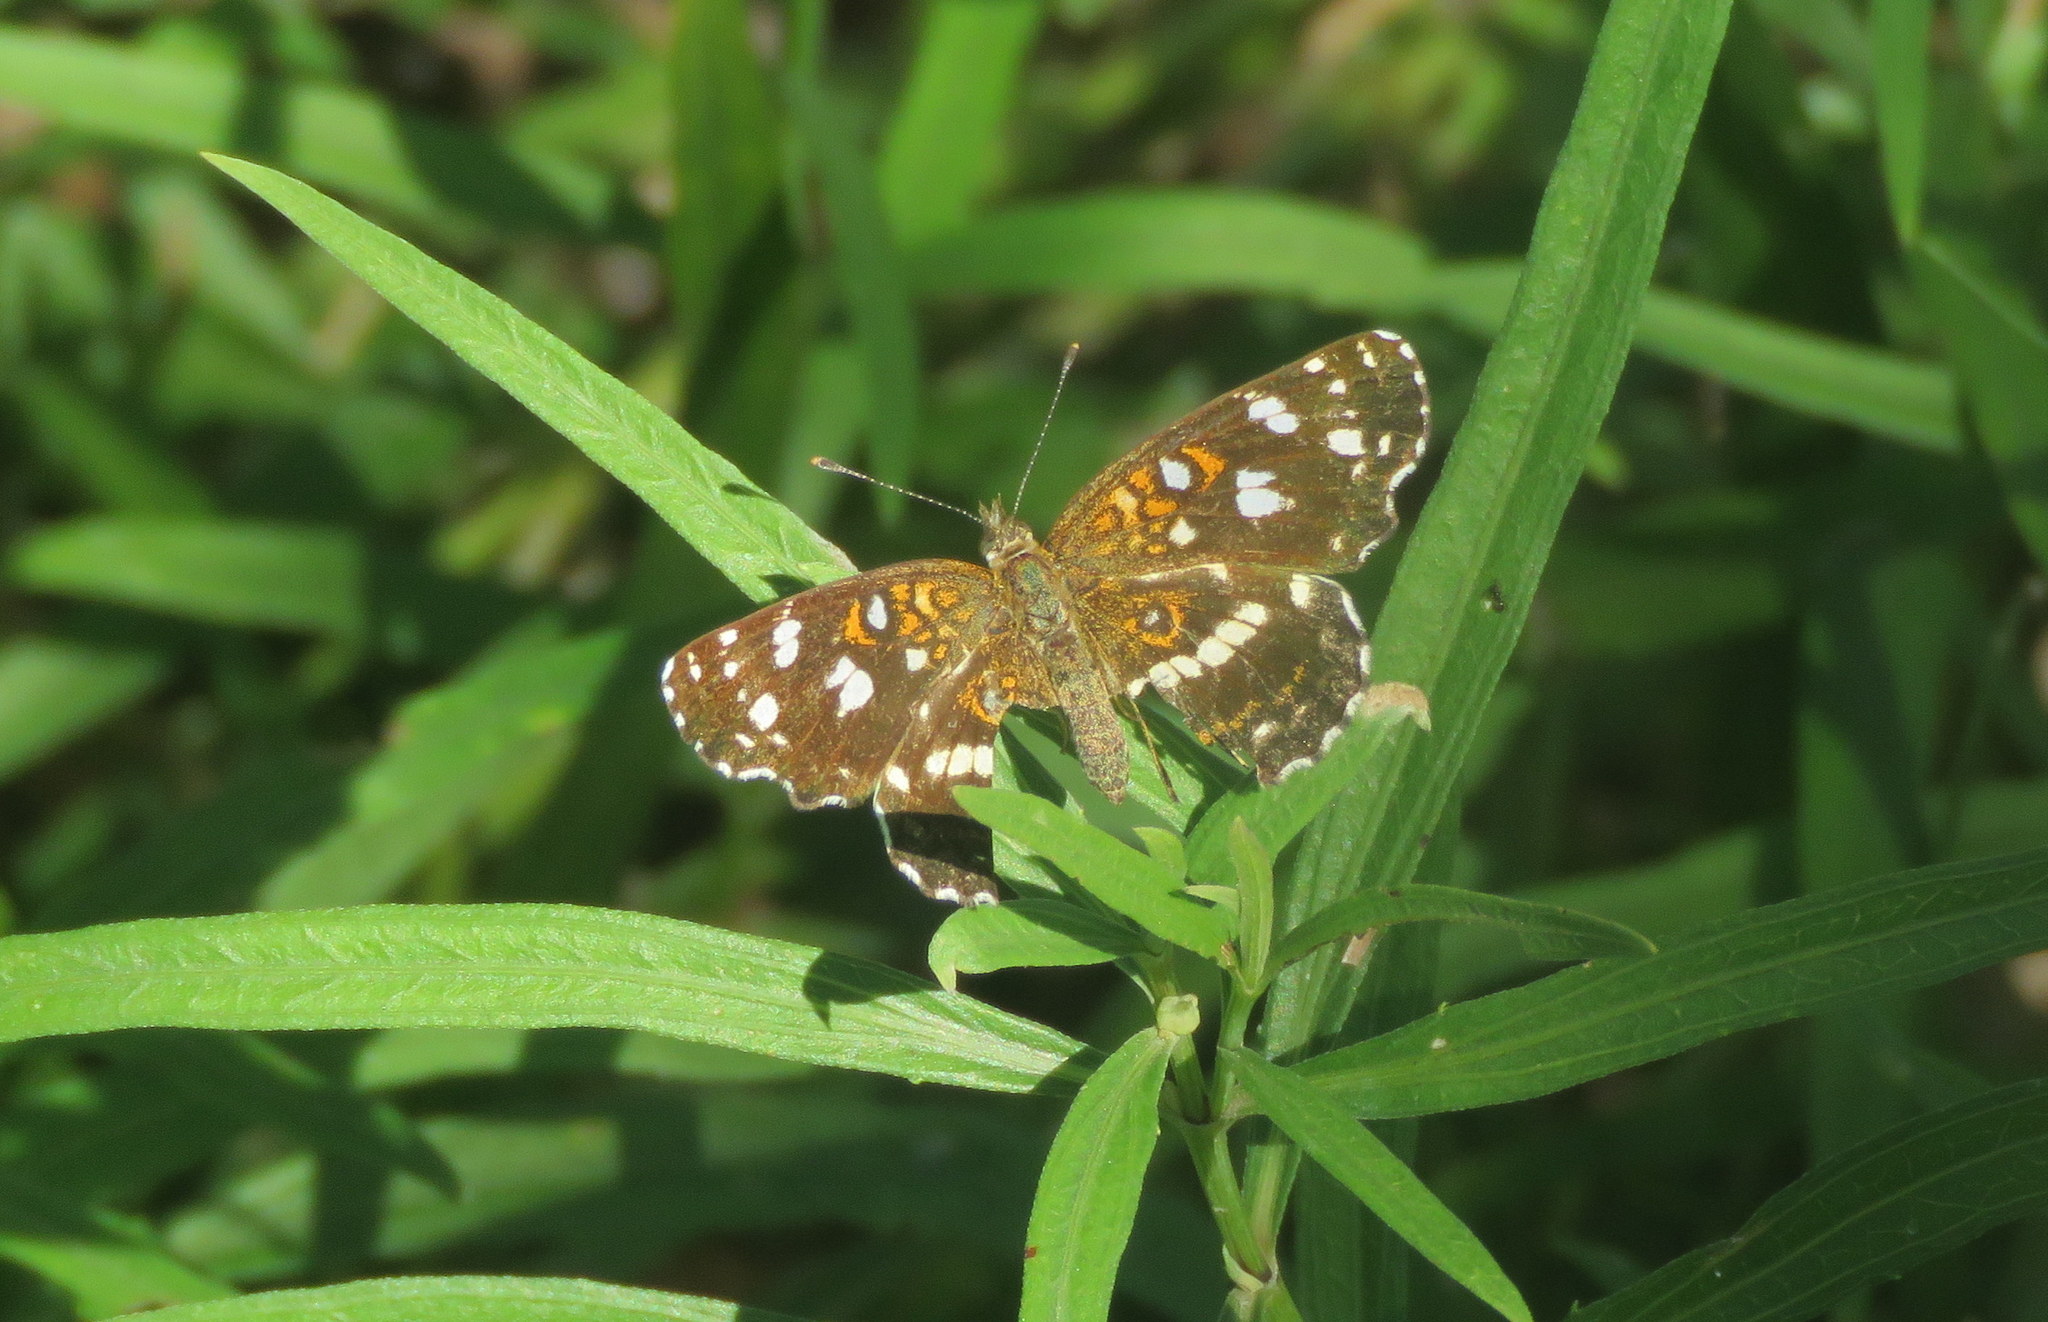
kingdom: Animalia
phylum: Arthropoda
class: Insecta
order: Lepidoptera
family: Nymphalidae
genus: Ortilia
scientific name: Ortilia ithra
